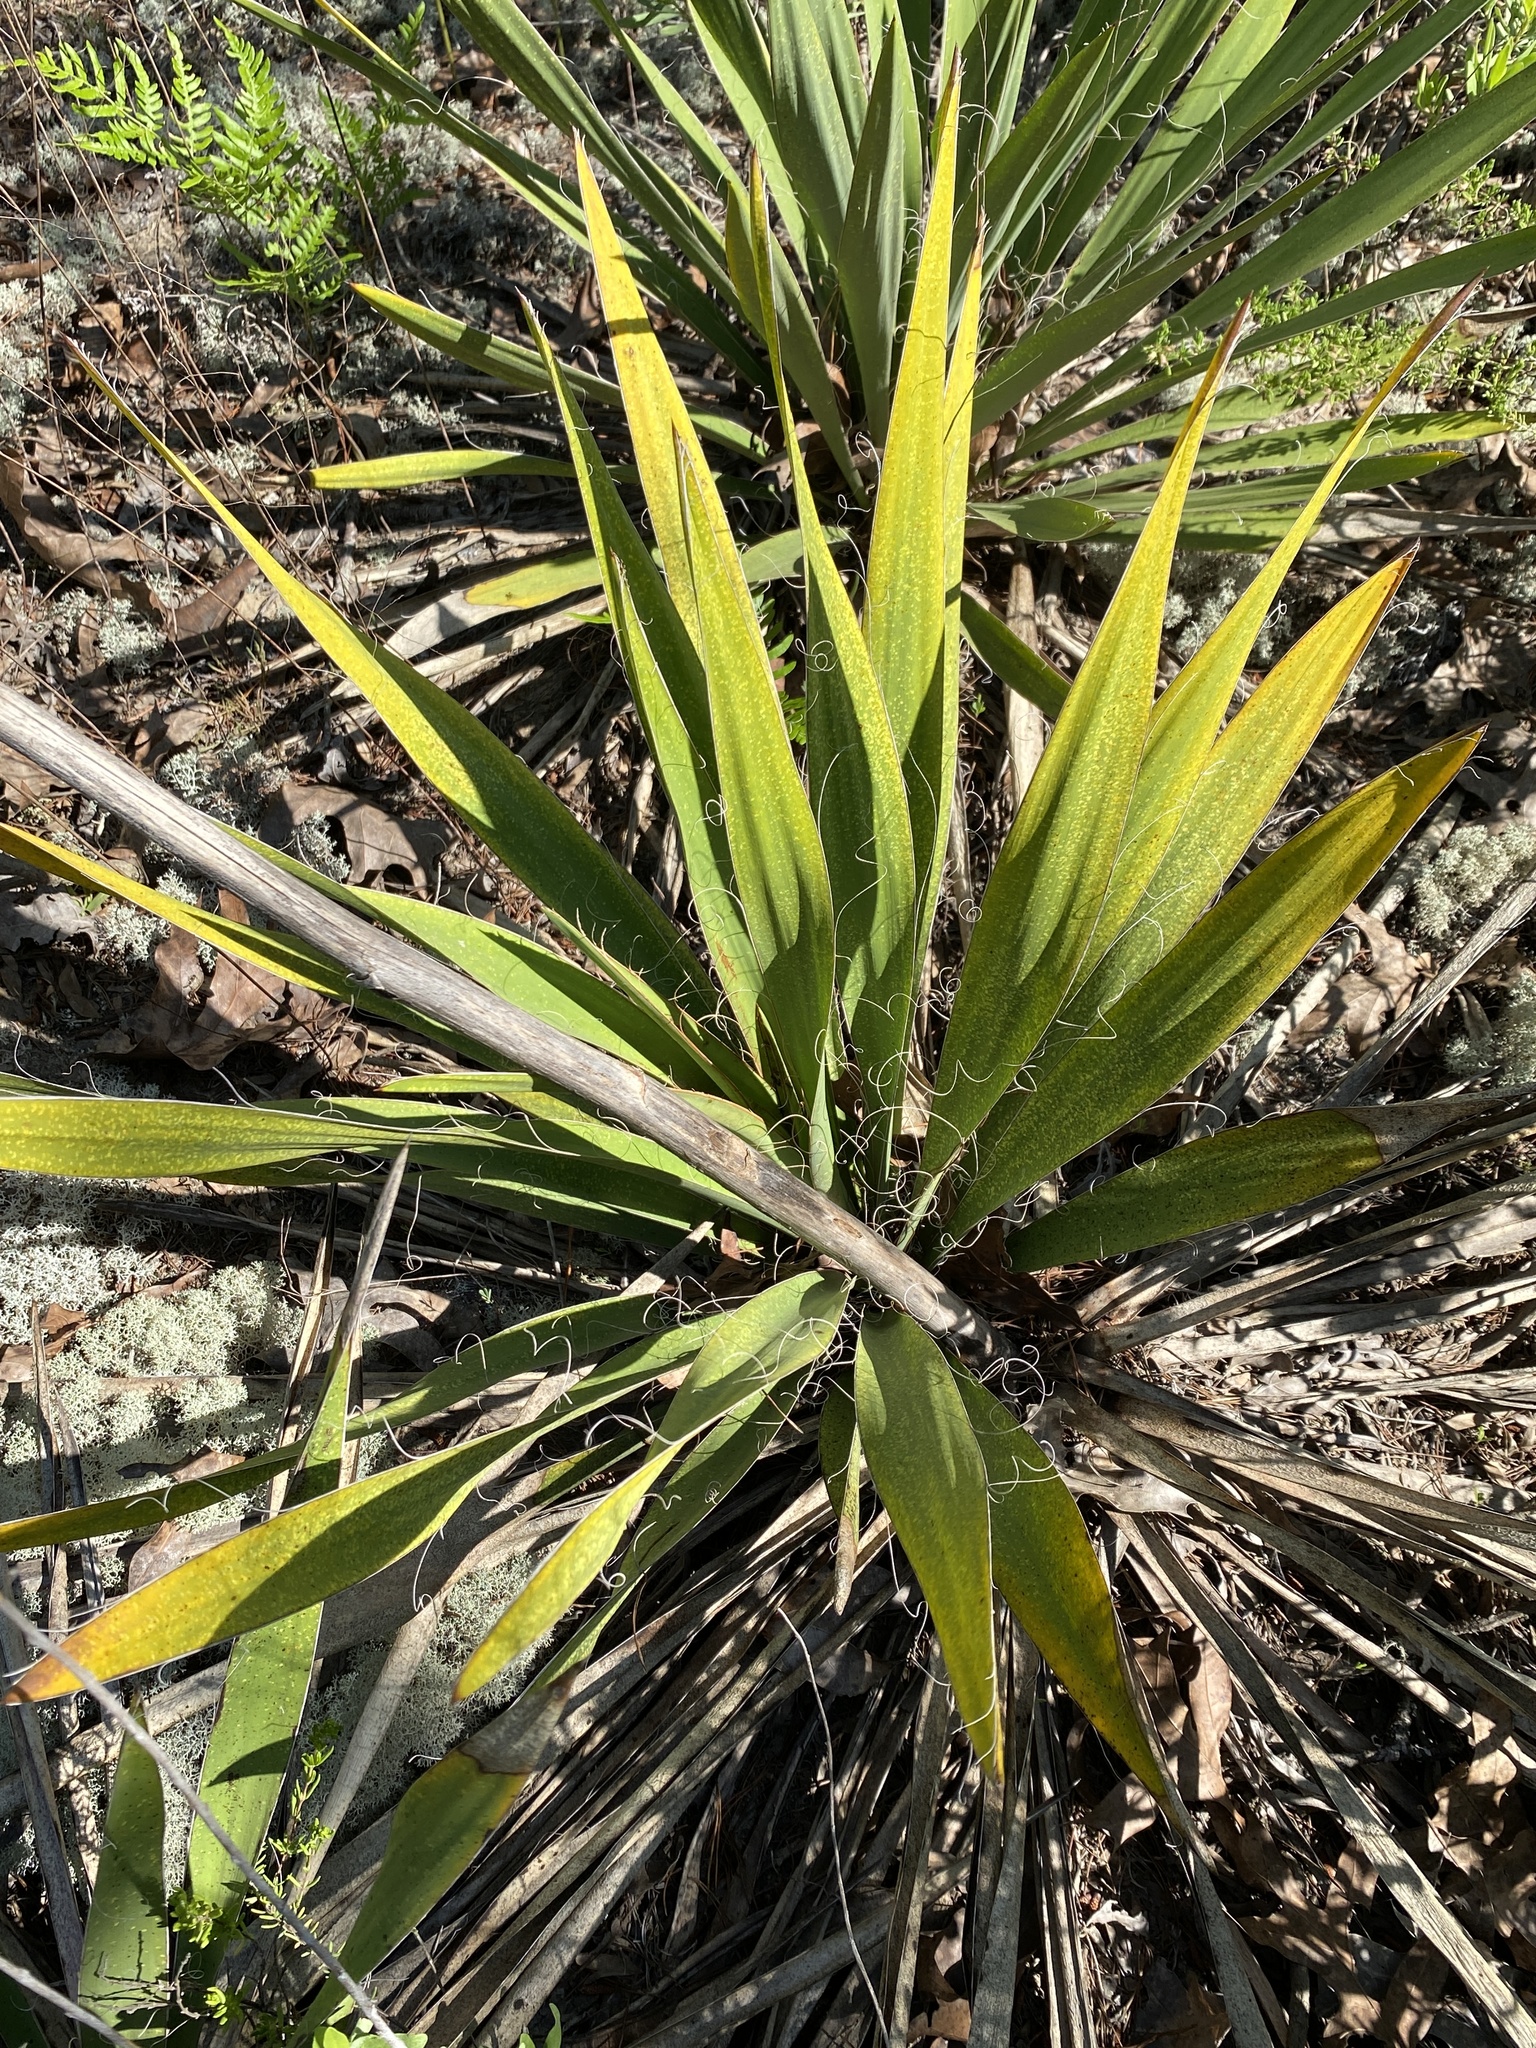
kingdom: Plantae
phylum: Tracheophyta
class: Liliopsida
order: Asparagales
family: Asparagaceae
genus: Yucca
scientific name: Yucca filamentosa
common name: Adam's-needle
